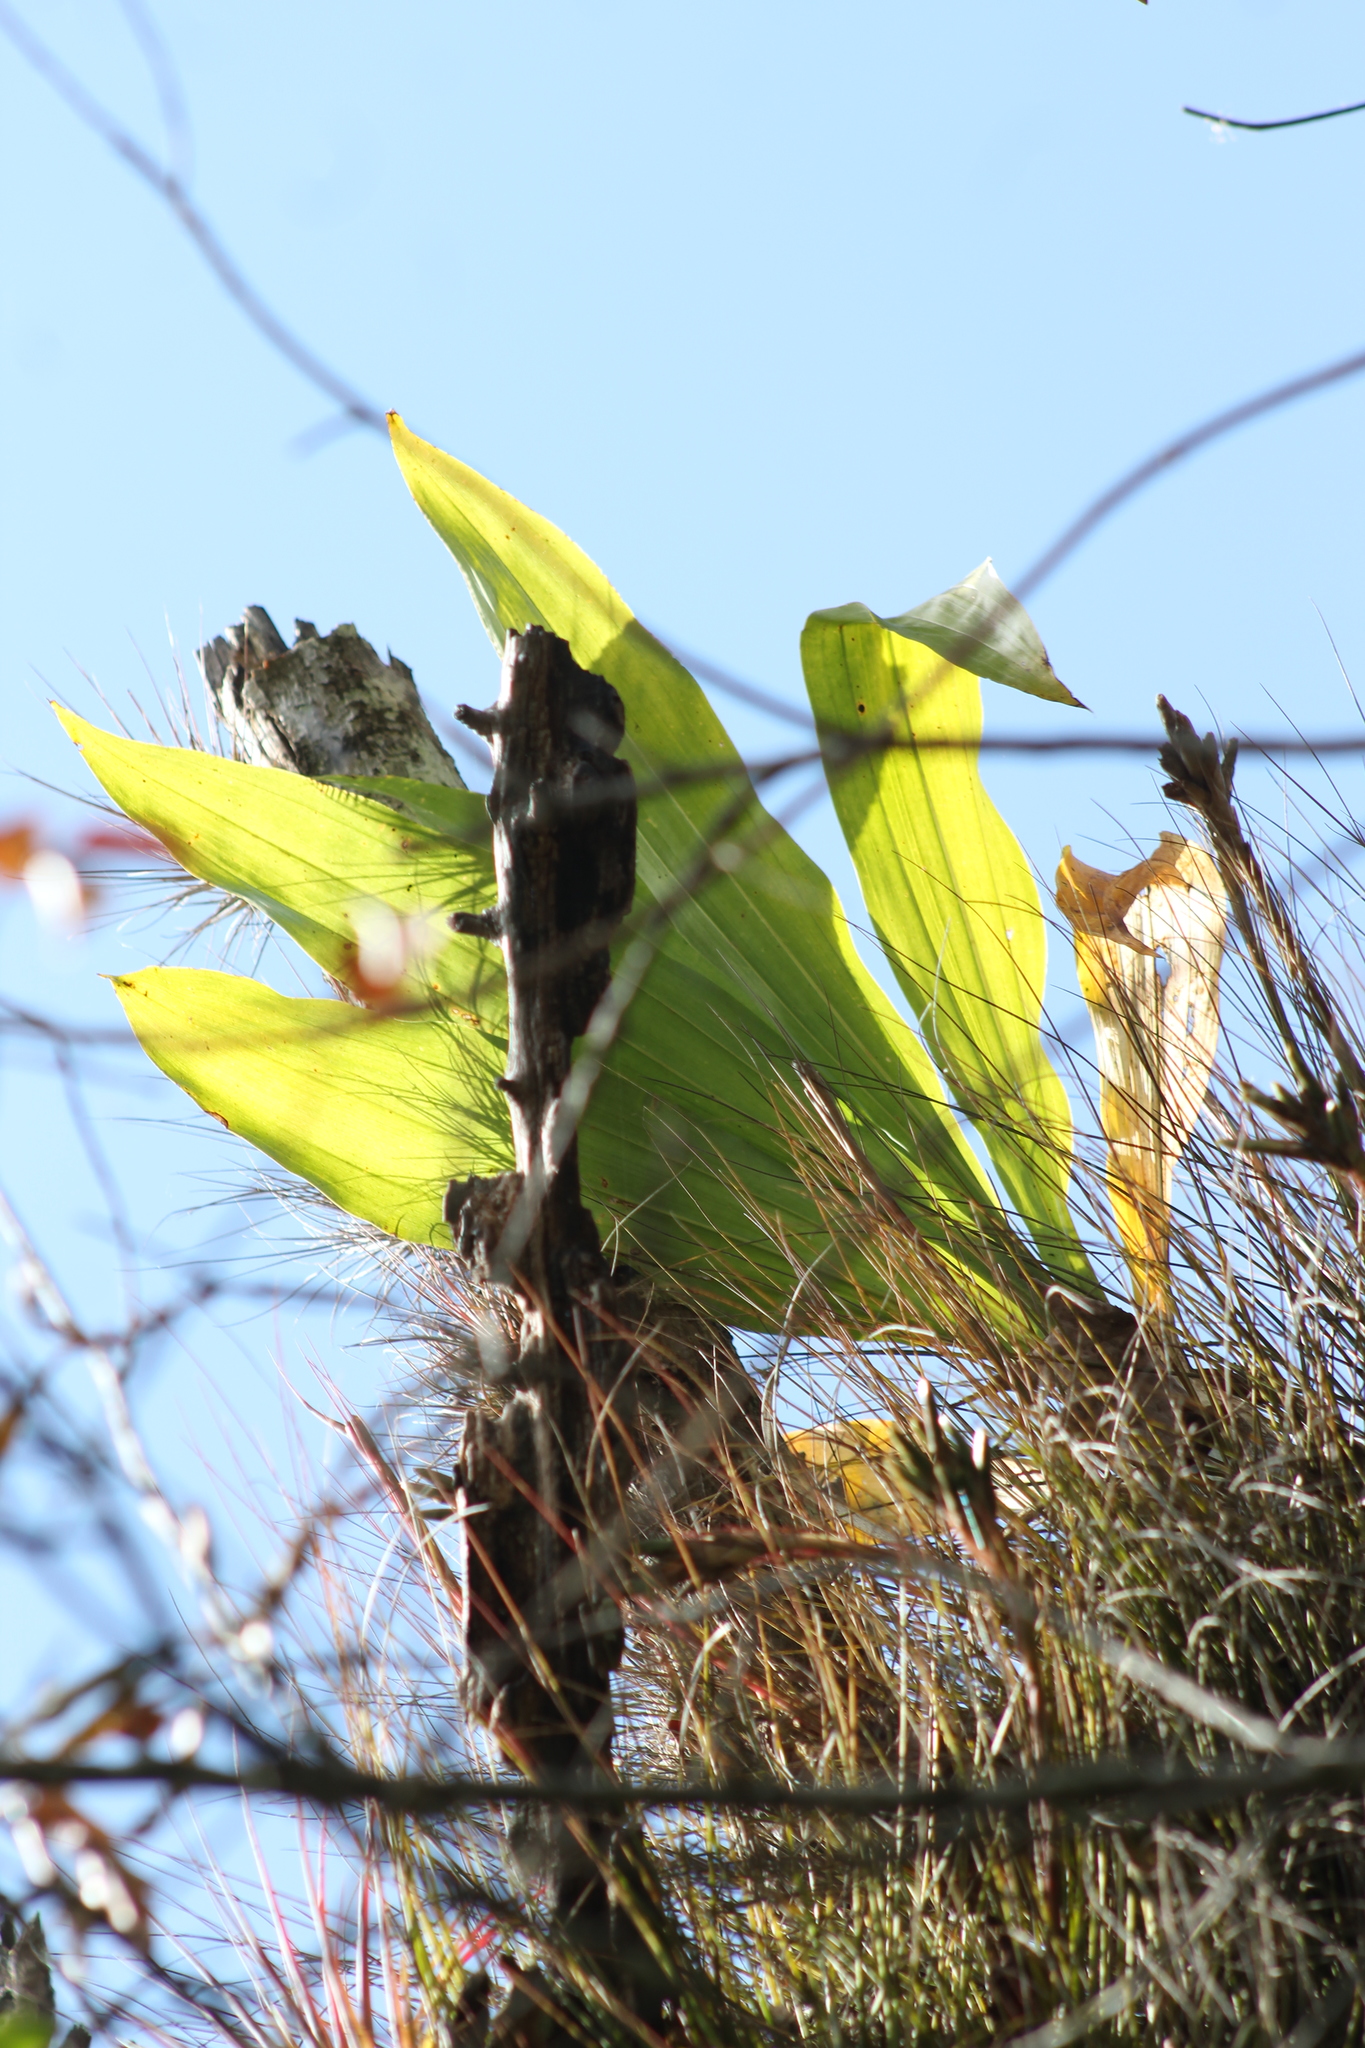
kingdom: Plantae
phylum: Tracheophyta
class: Liliopsida
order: Asparagales
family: Orchidaceae
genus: Catasetum
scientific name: Catasetum integerrimum
